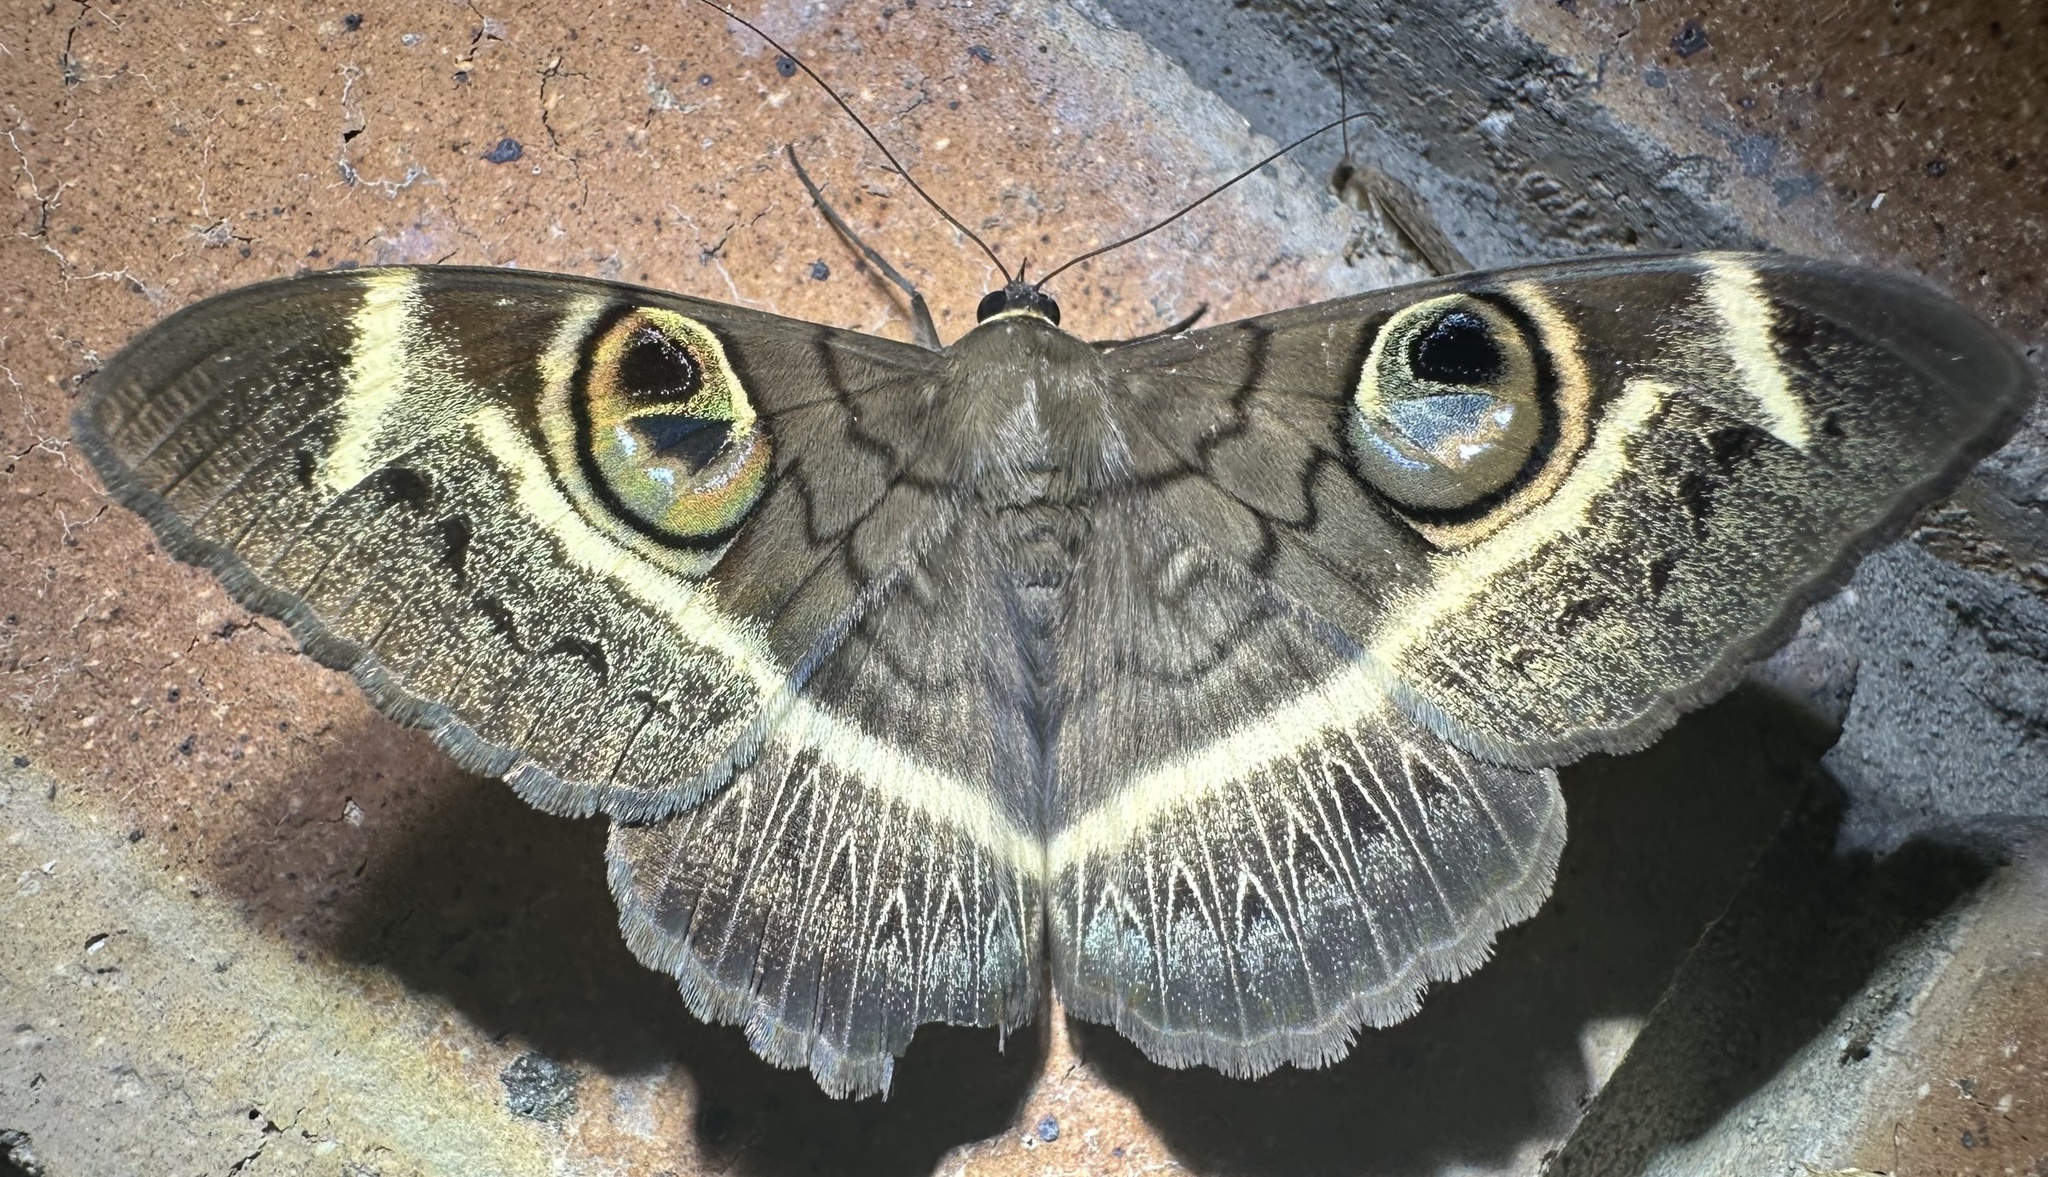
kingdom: Animalia
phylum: Arthropoda
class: Insecta
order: Lepidoptera
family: Erebidae
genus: Cyligramma
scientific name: Cyligramma latona
